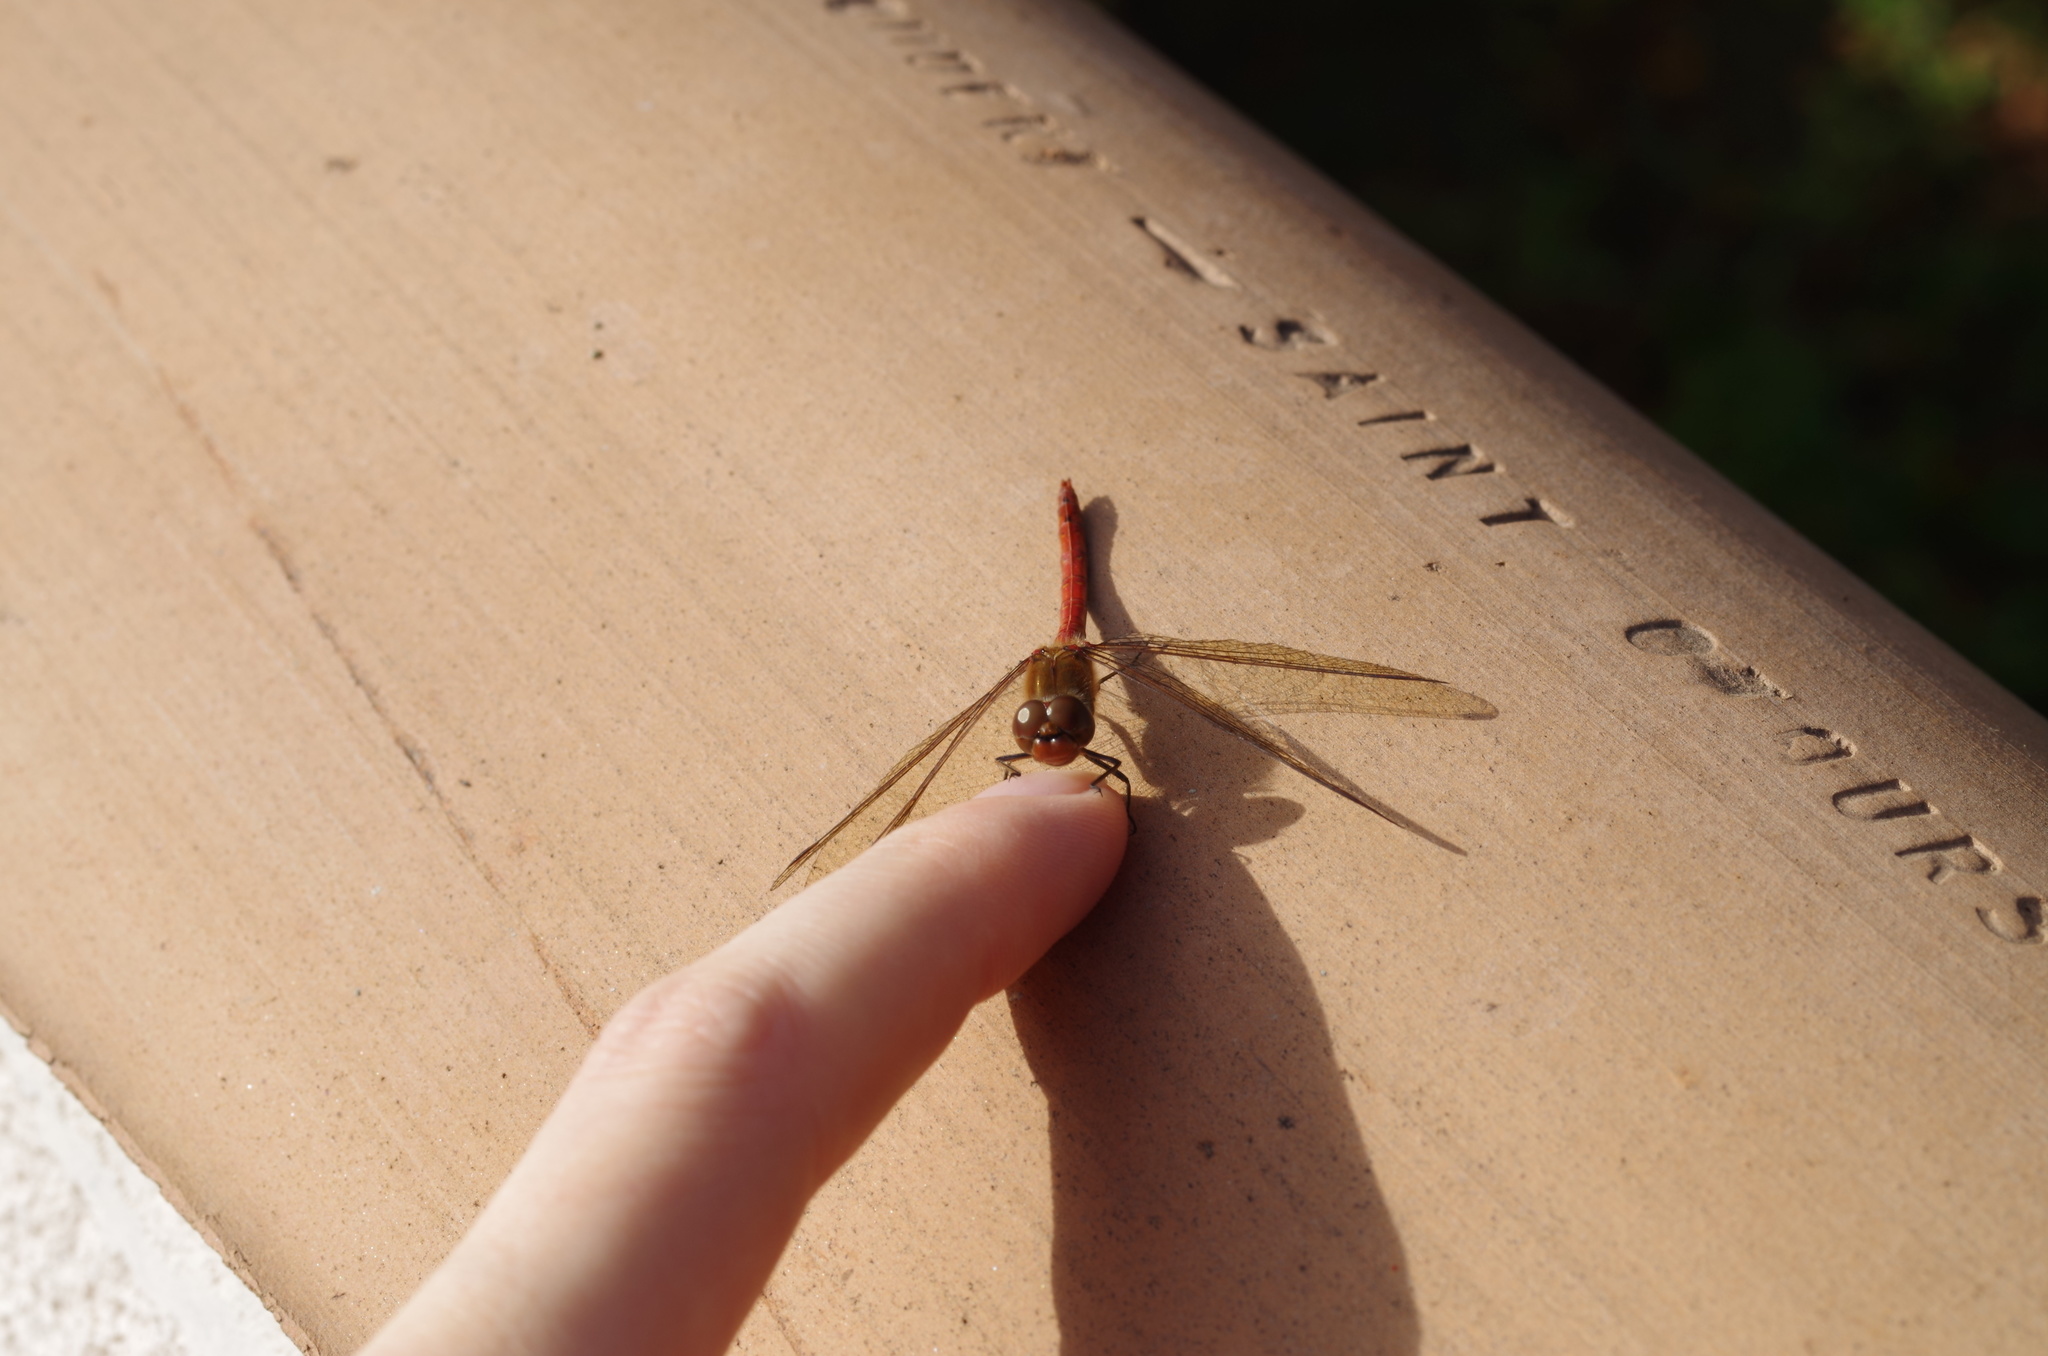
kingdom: Animalia
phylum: Arthropoda
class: Insecta
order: Odonata
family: Libellulidae
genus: Sympetrum
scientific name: Sympetrum striolatum
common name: Common darter
